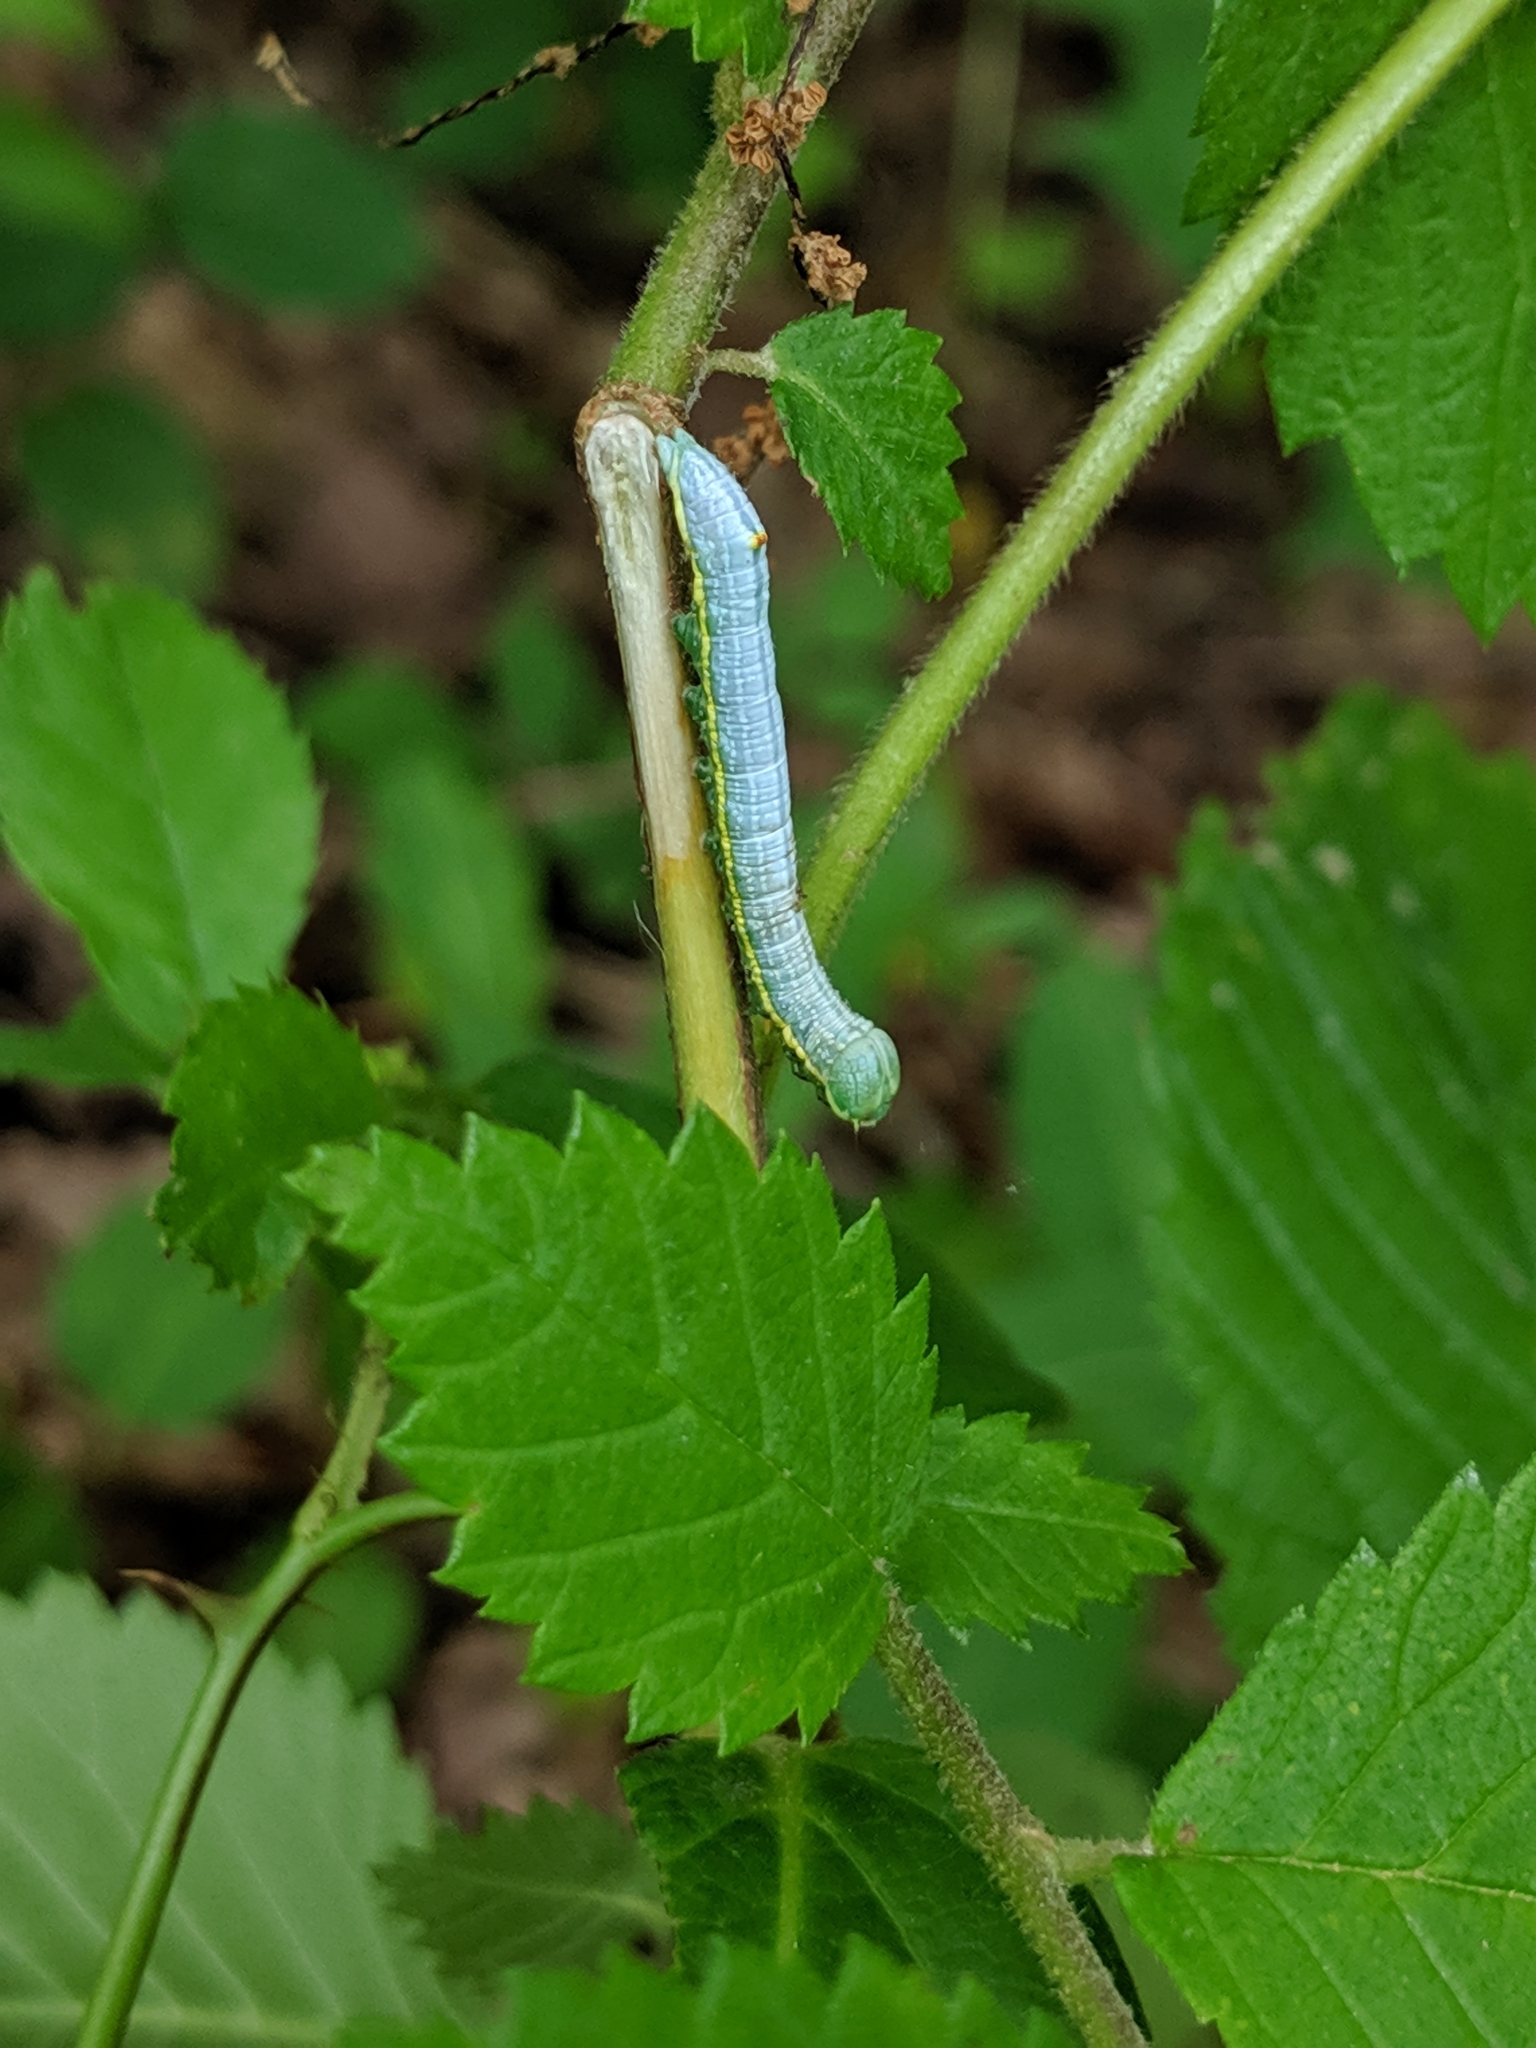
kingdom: Animalia
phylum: Arthropoda
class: Insecta
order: Lepidoptera
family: Notodontidae
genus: Paraeschra
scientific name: Paraeschra georgica
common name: Georgian prominent
